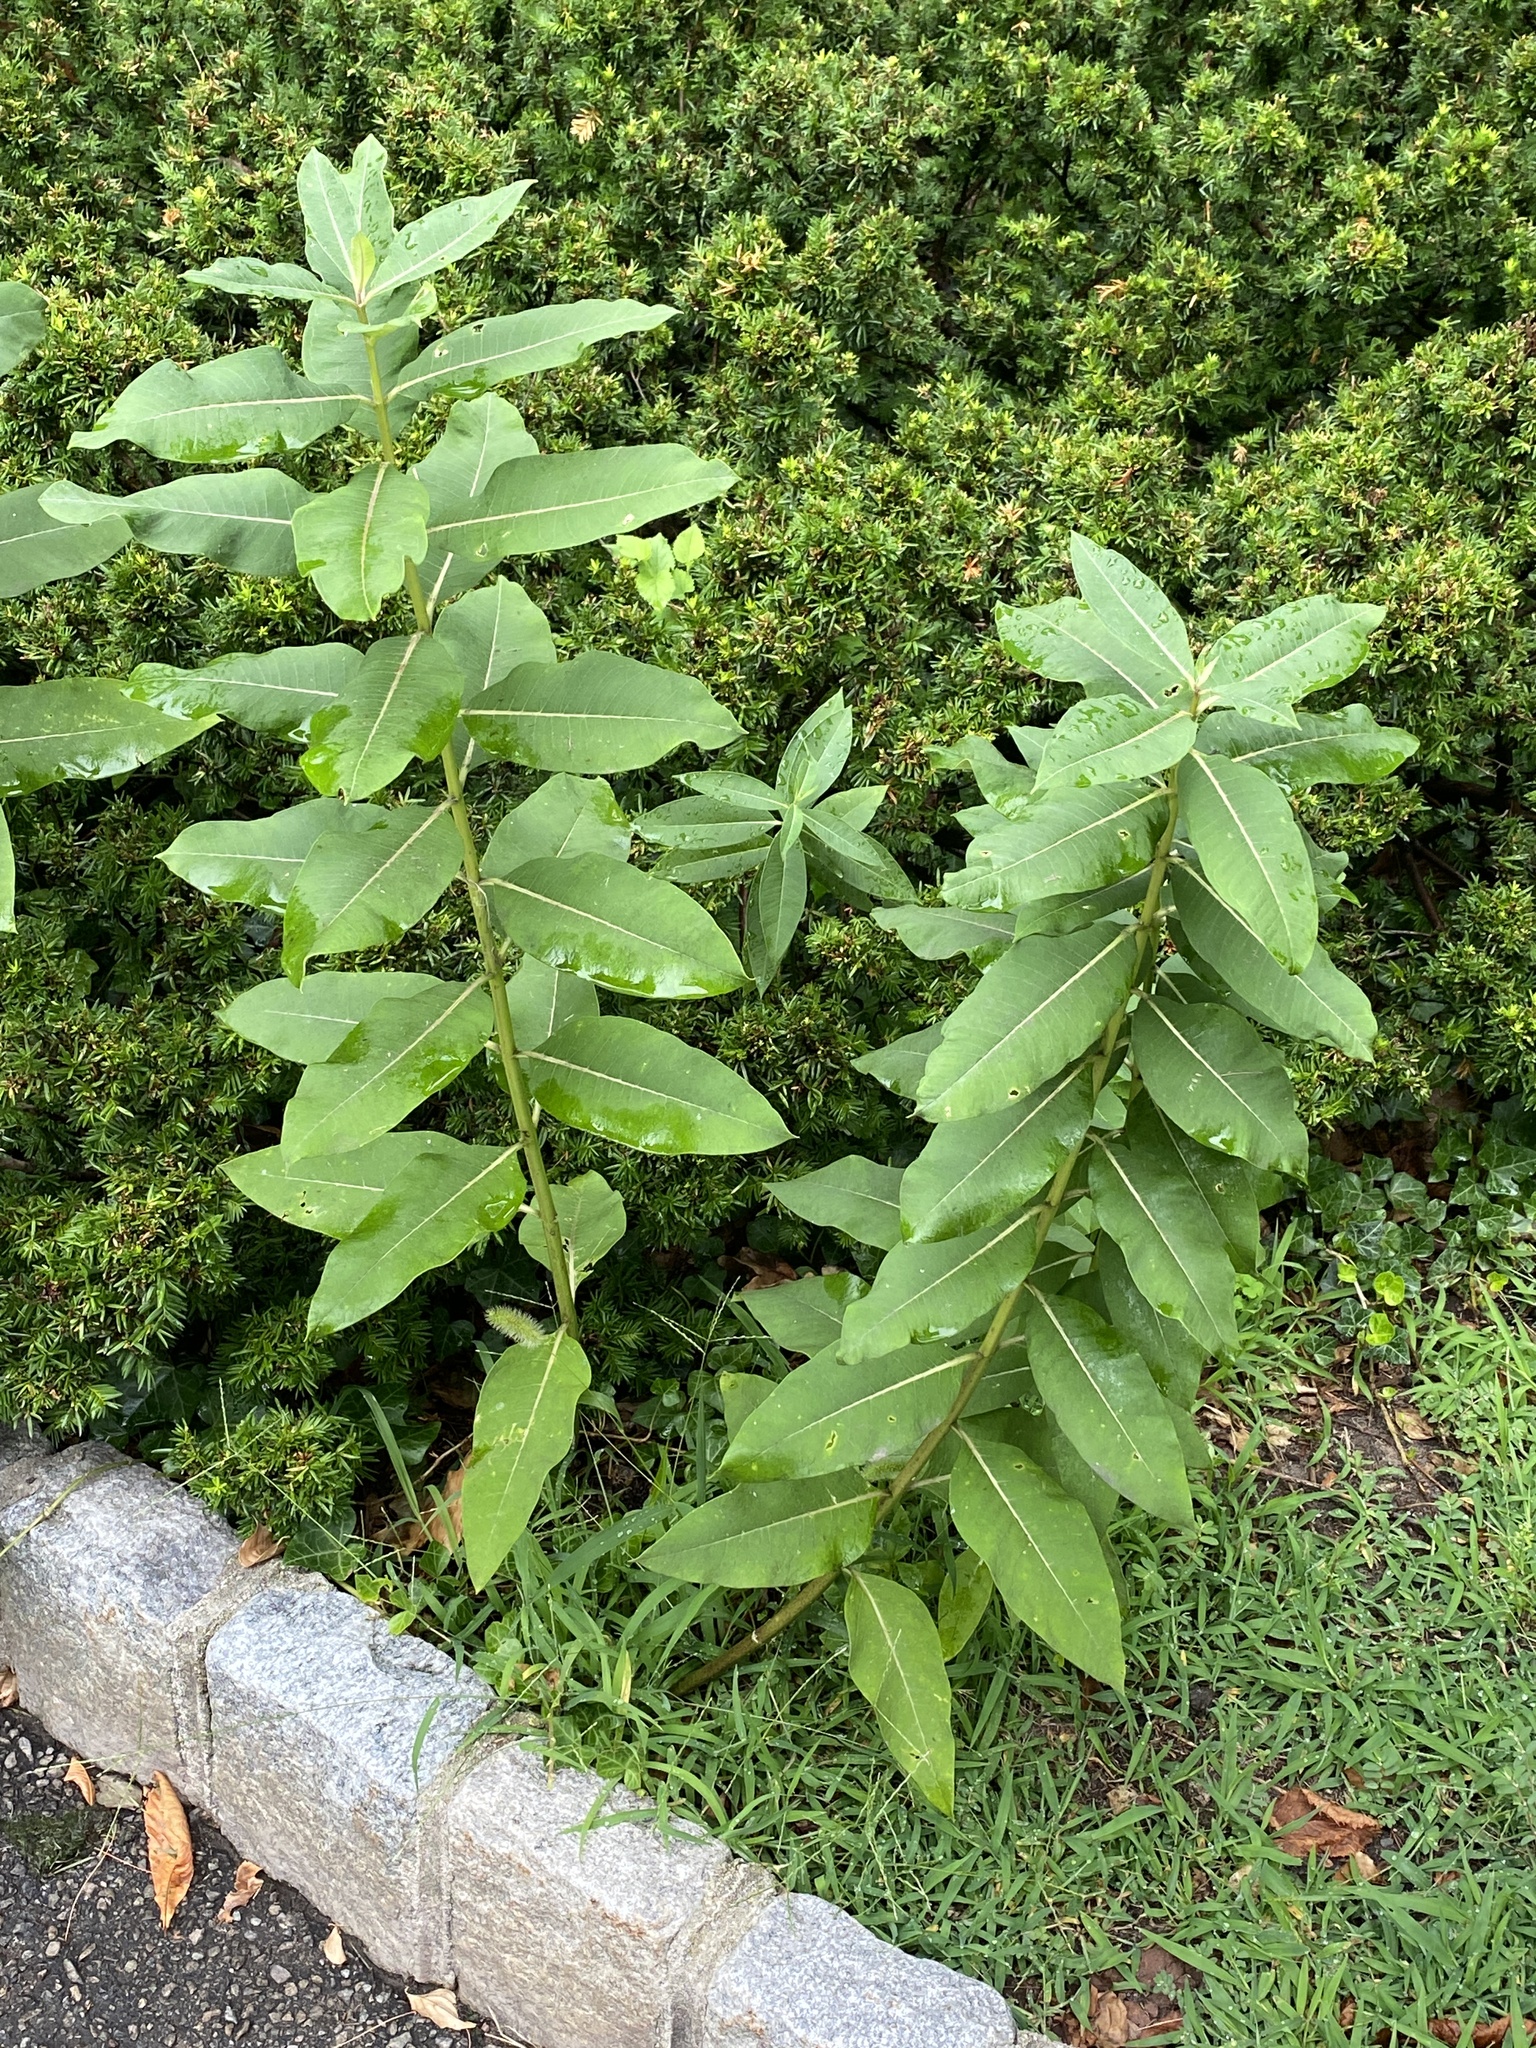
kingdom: Plantae
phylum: Tracheophyta
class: Magnoliopsida
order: Gentianales
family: Apocynaceae
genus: Asclepias
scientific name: Asclepias syriaca
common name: Common milkweed
